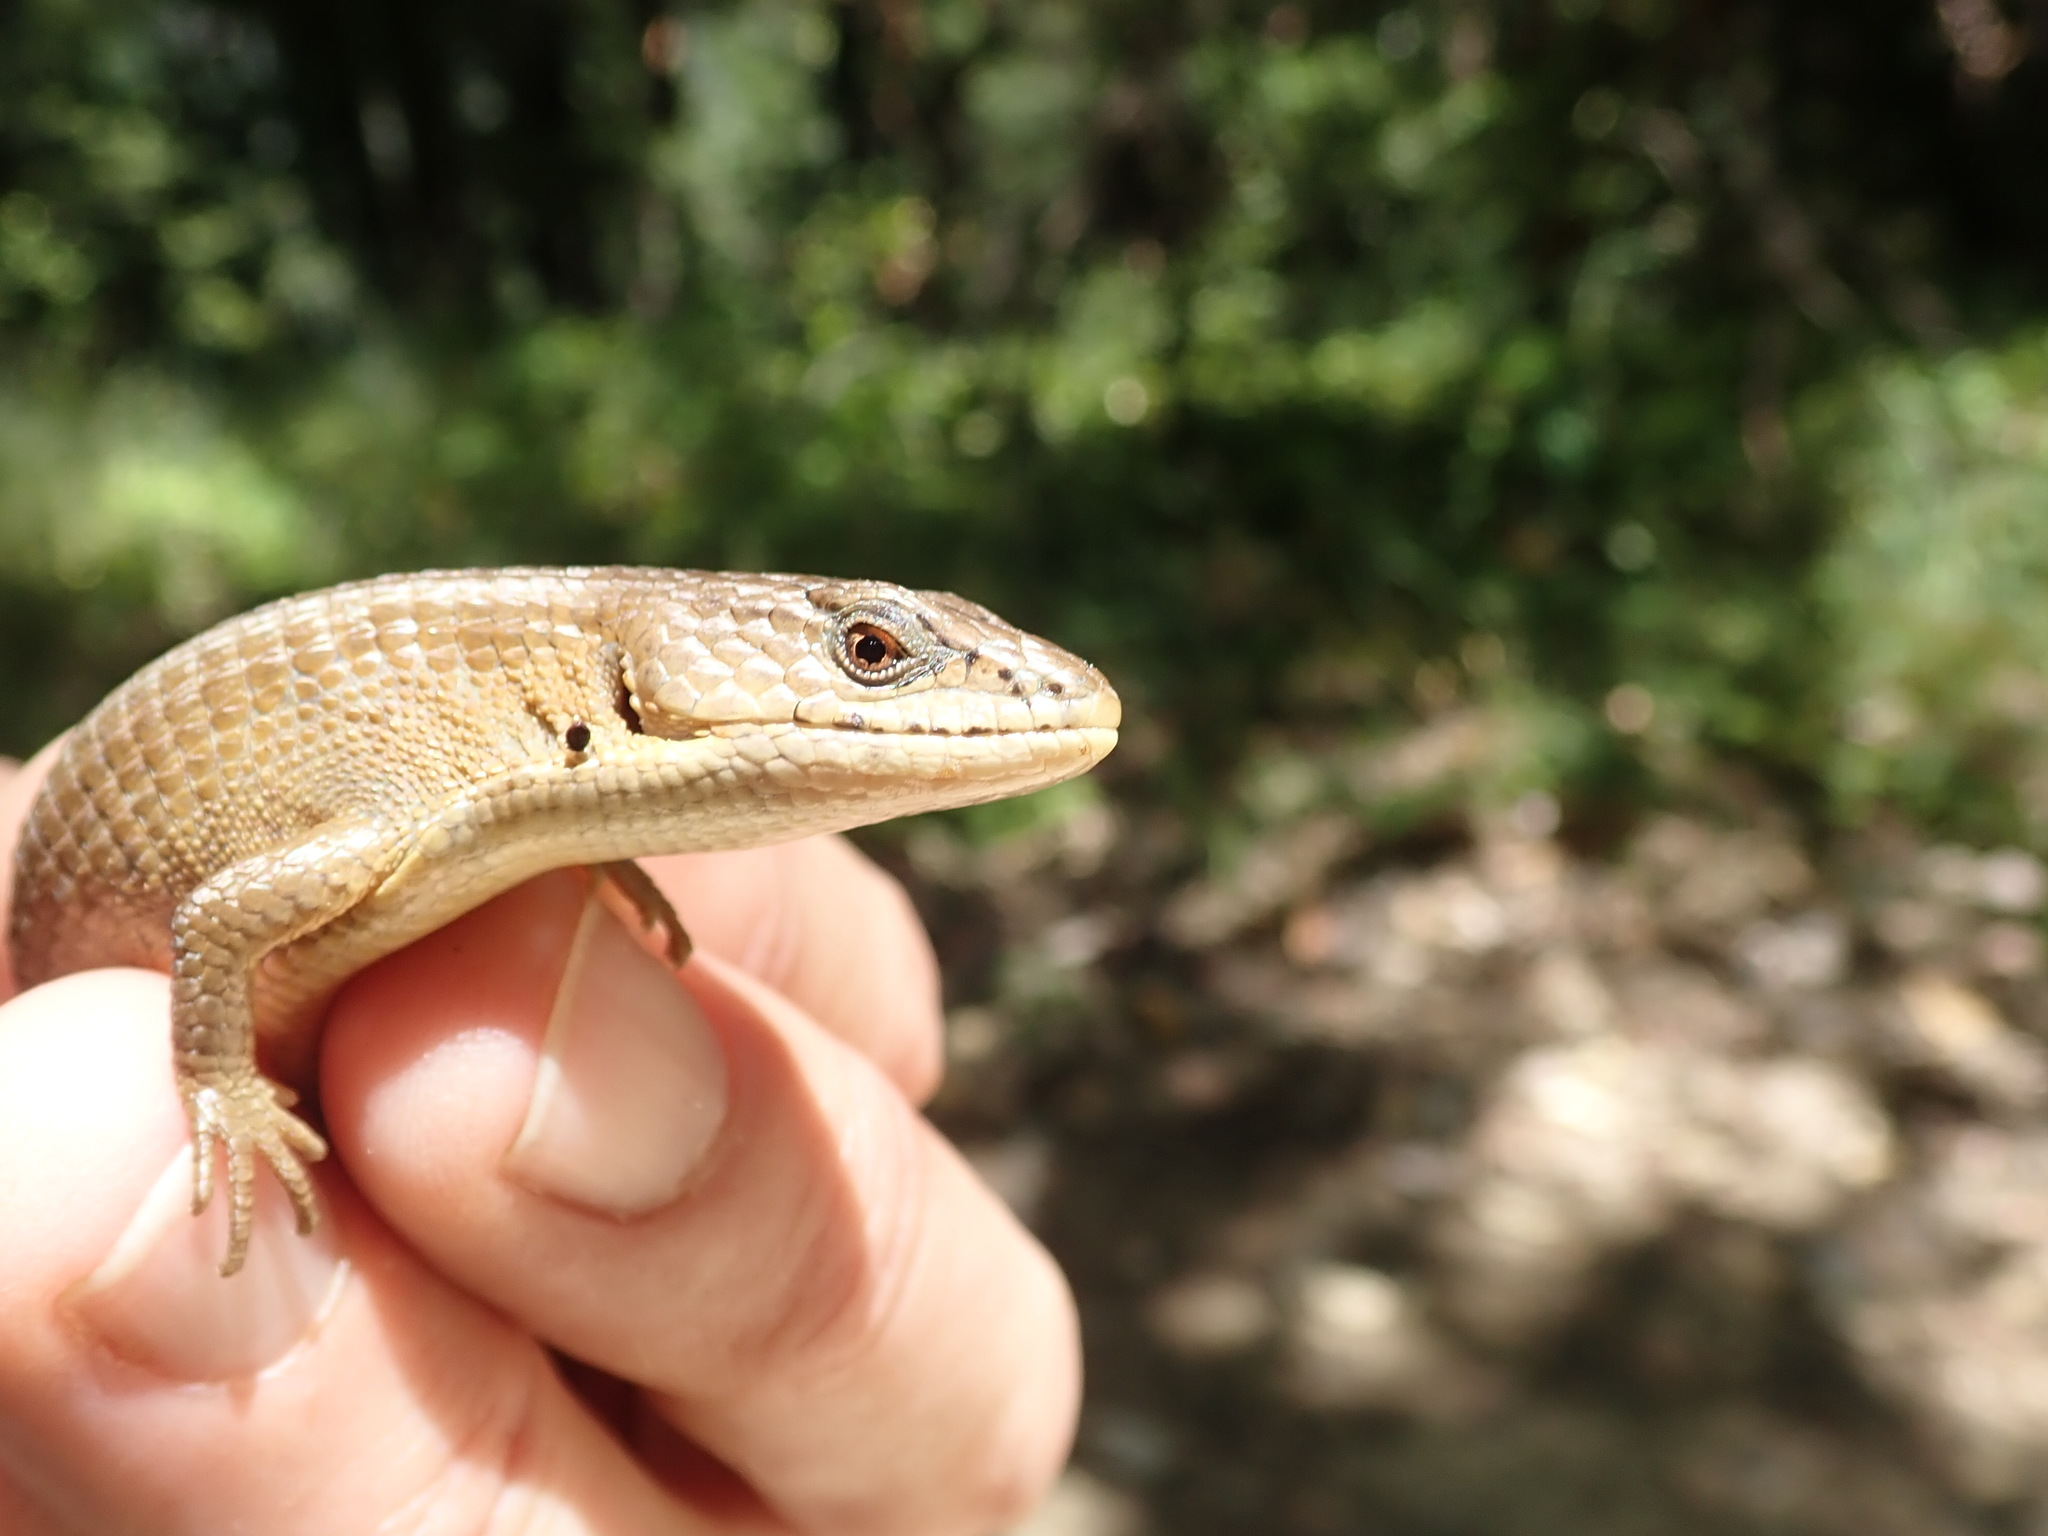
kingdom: Animalia
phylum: Chordata
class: Squamata
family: Anguidae
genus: Elgaria
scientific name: Elgaria coerulea
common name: Northern alligator lizard
